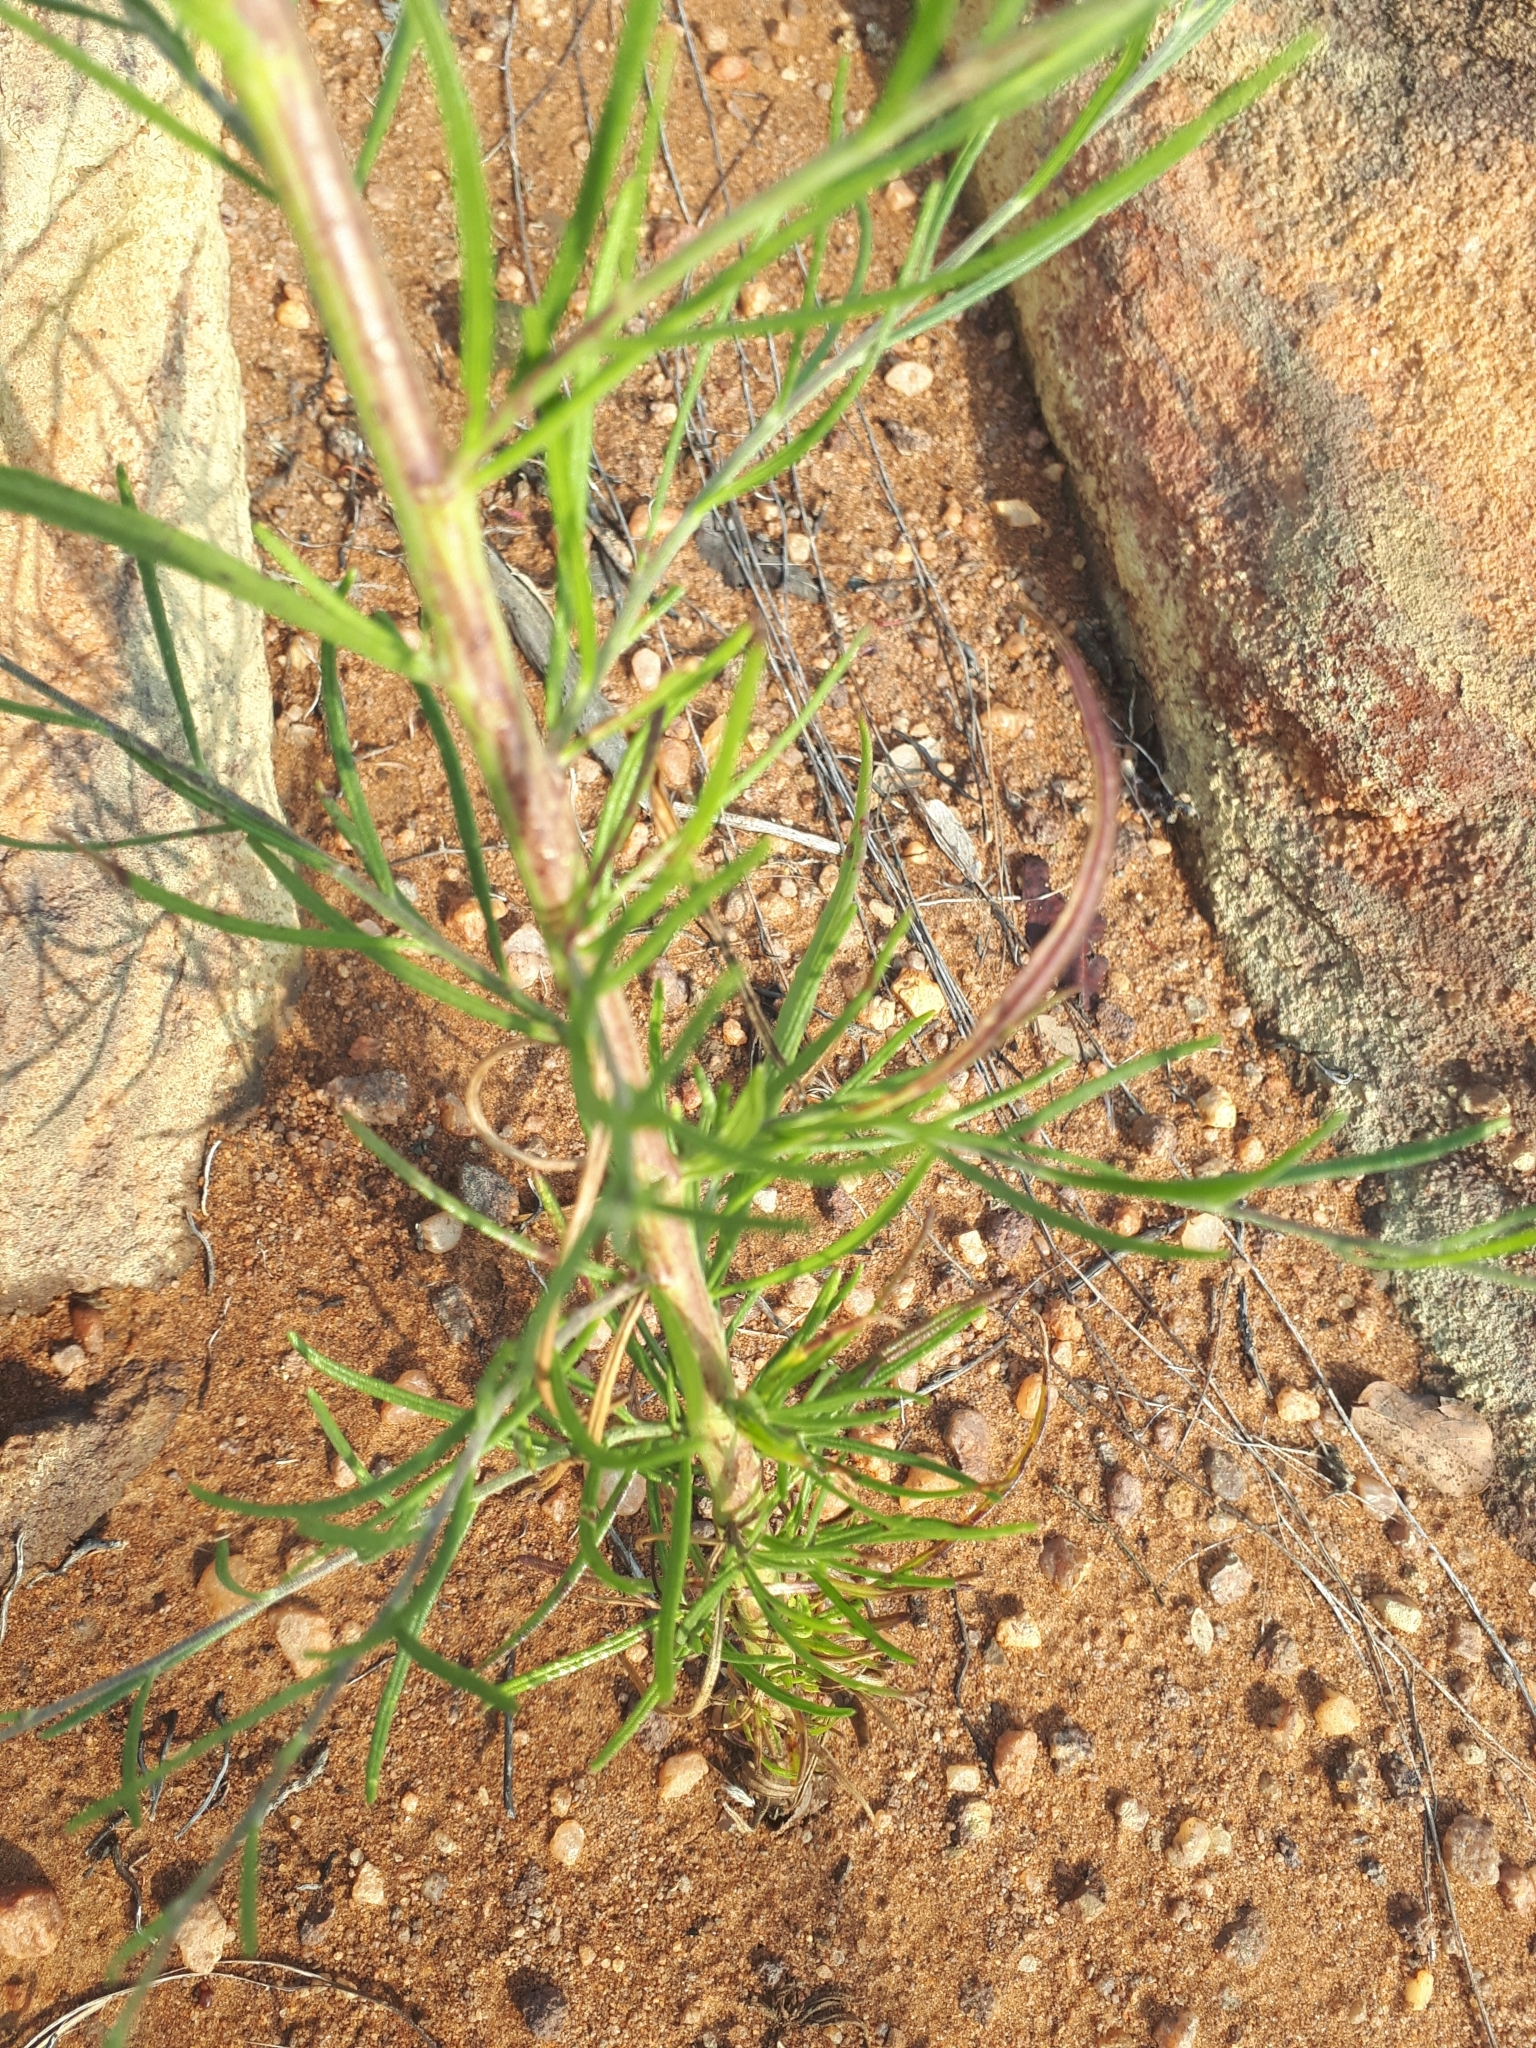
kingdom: Plantae
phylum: Tracheophyta
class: Magnoliopsida
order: Asterales
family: Asteraceae
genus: Crystallopollen
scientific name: Crystallopollen angustifolium
